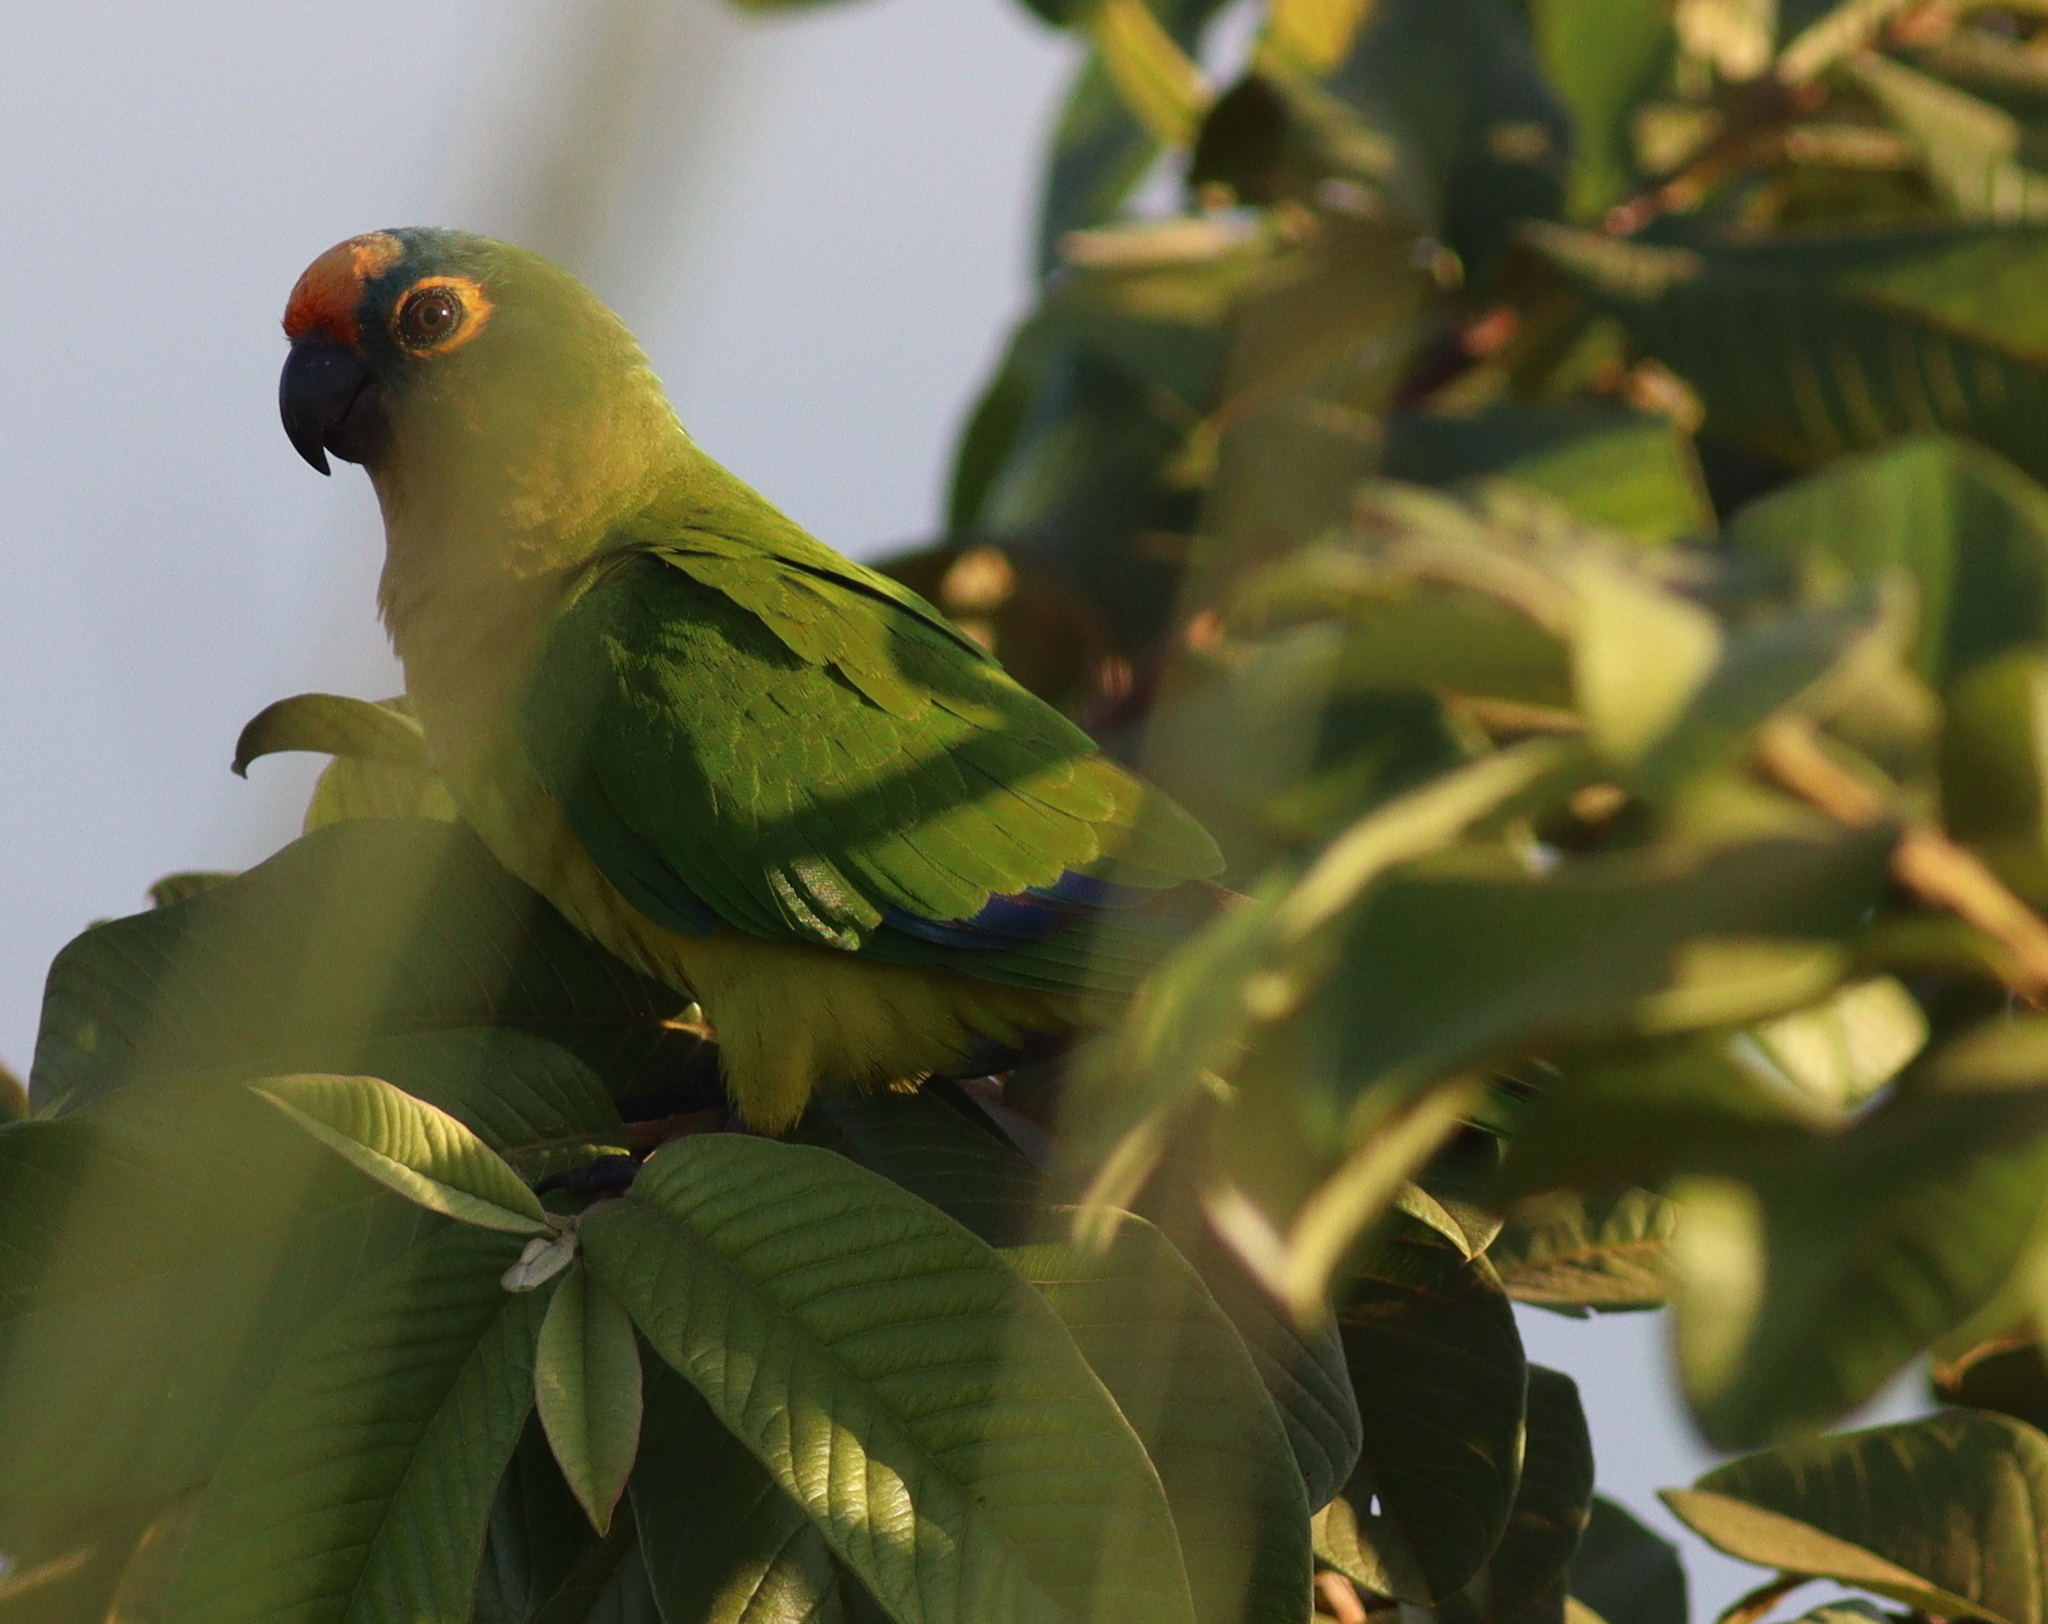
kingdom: Animalia
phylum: Chordata
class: Aves
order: Psittaciformes
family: Psittacidae
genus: Aratinga
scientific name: Aratinga aurea
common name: Peach-fronted parakeet
